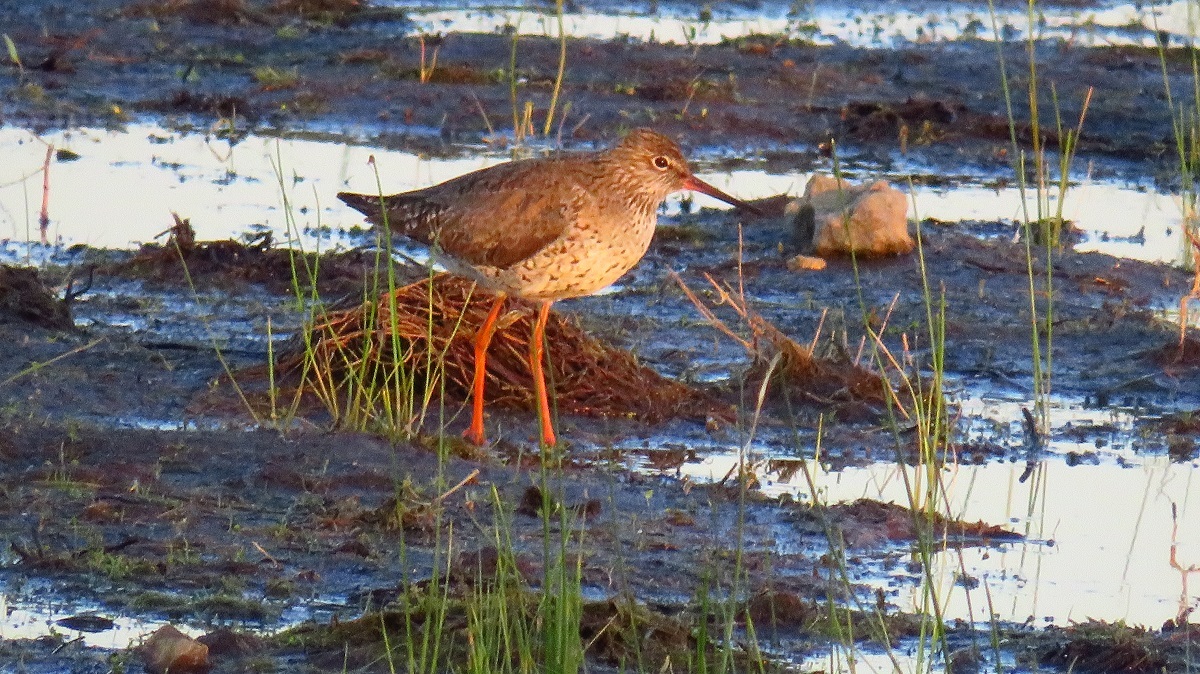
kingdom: Animalia
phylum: Chordata
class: Aves
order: Charadriiformes
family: Scolopacidae
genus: Tringa
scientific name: Tringa totanus
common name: Common redshank
